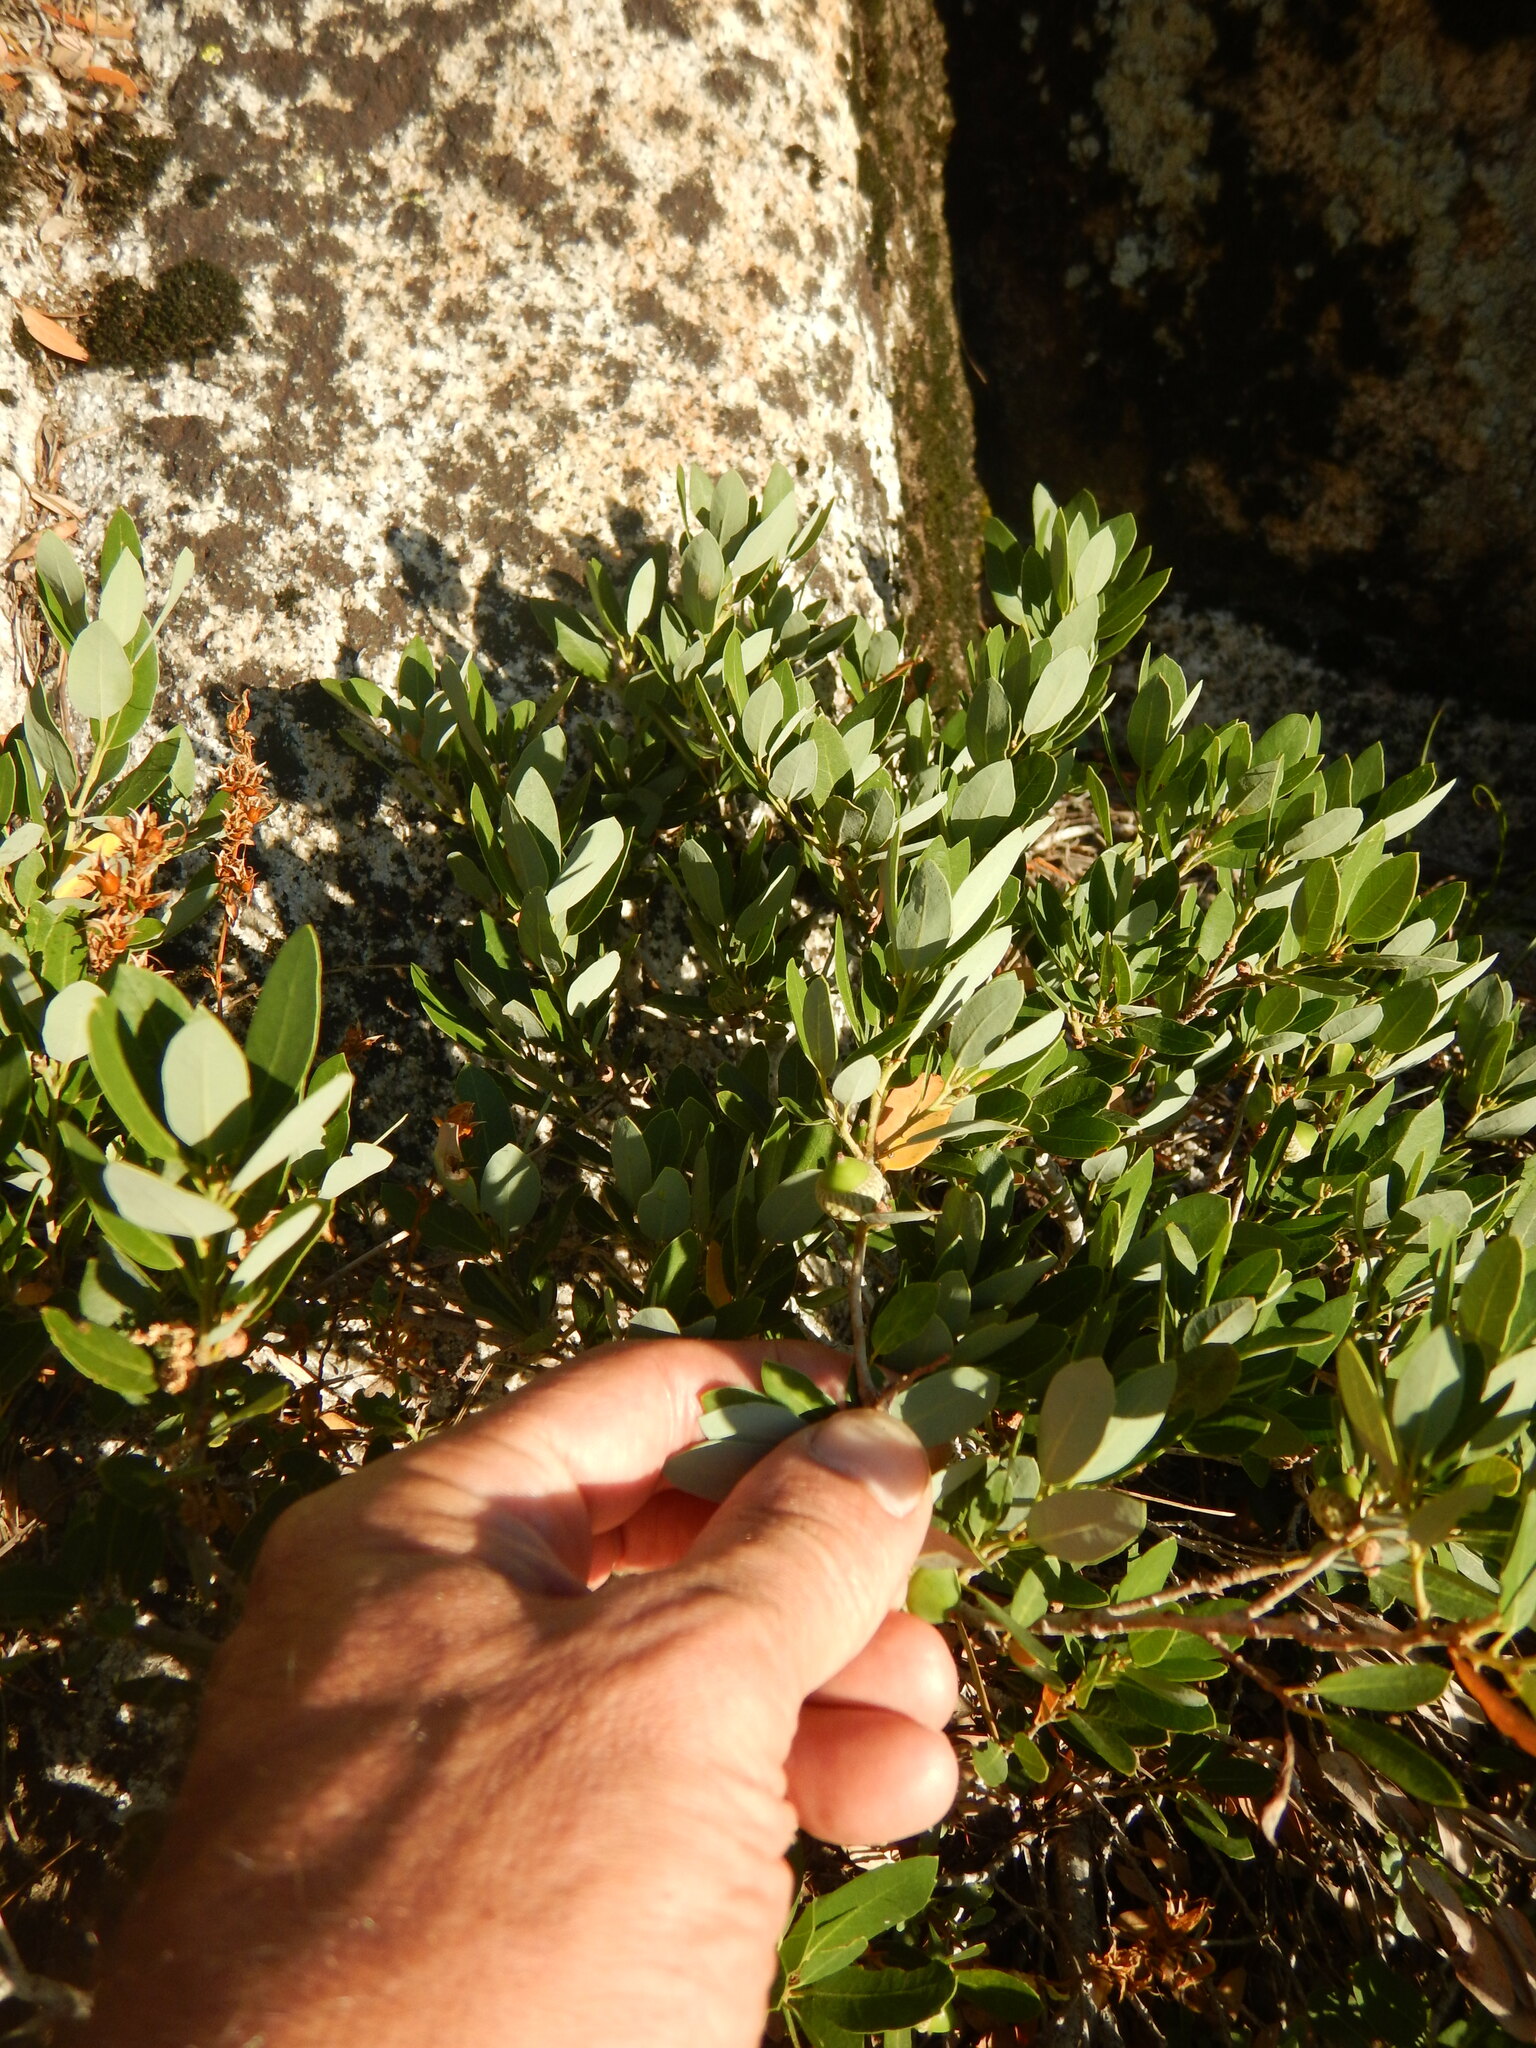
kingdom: Plantae
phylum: Tracheophyta
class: Magnoliopsida
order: Fagales
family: Fagaceae
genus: Quercus
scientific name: Quercus vacciniifolia
